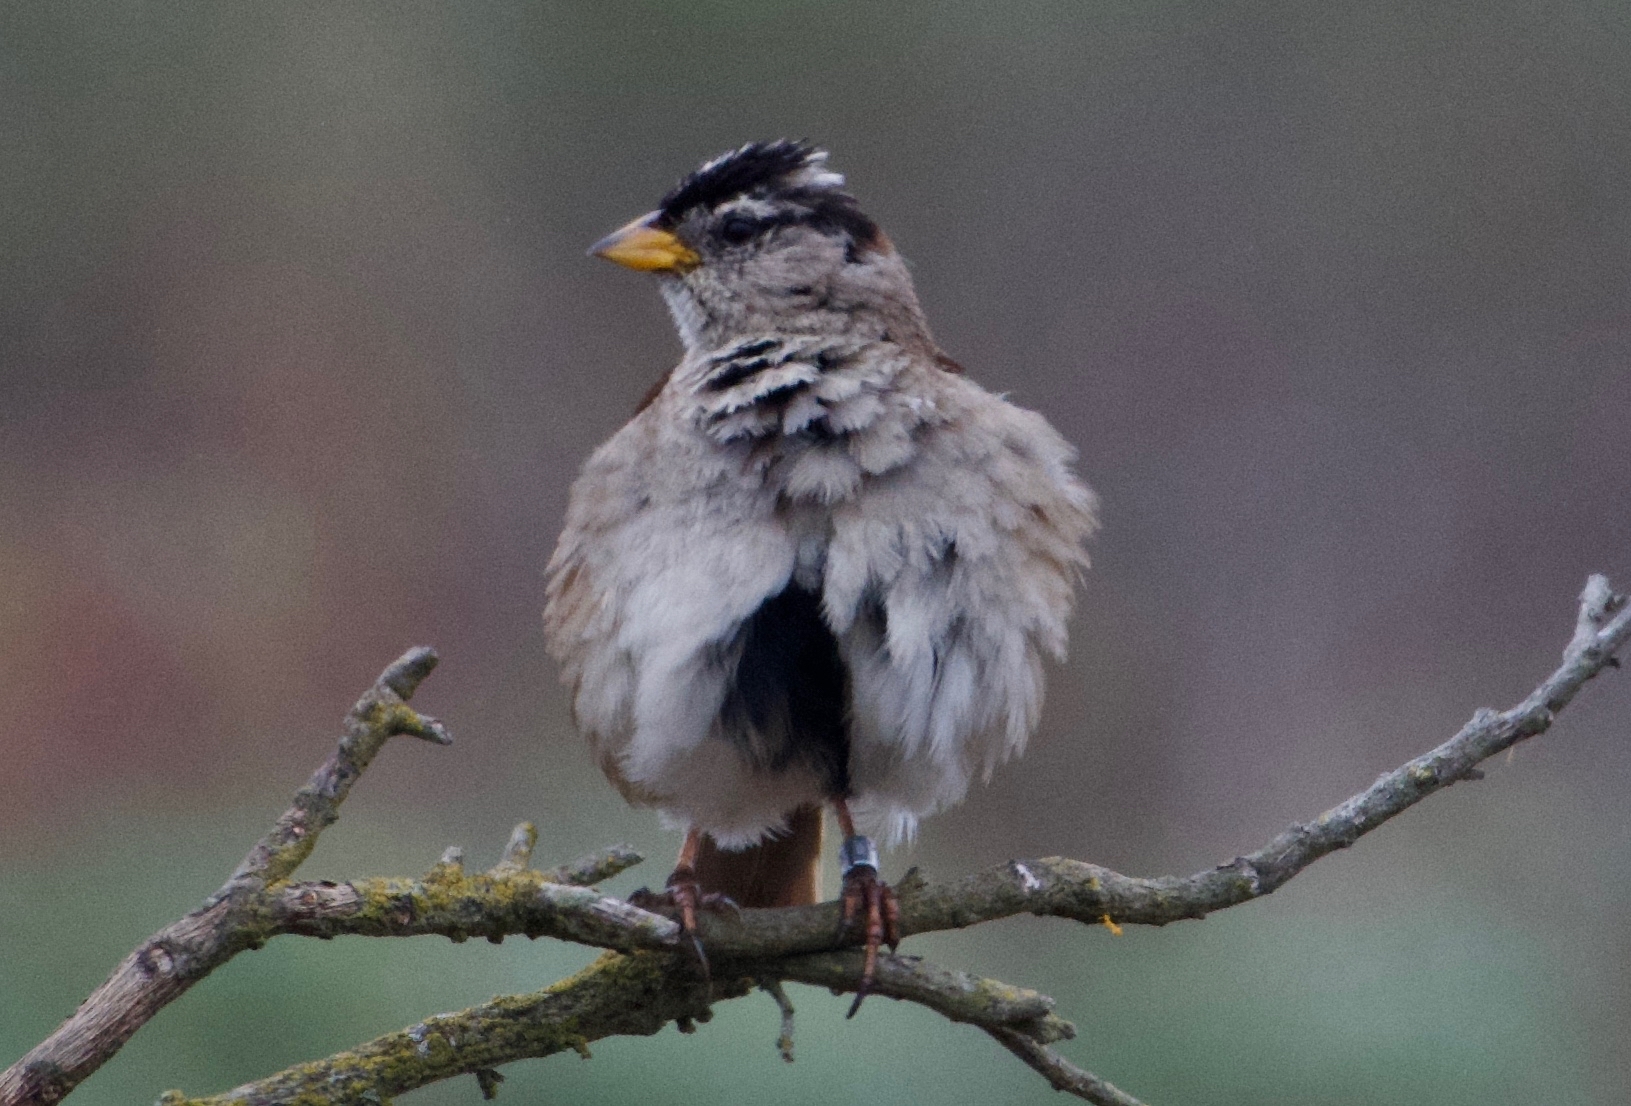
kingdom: Animalia
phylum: Chordata
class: Aves
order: Passeriformes
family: Passerellidae
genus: Zonotrichia
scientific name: Zonotrichia leucophrys
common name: White-crowned sparrow
